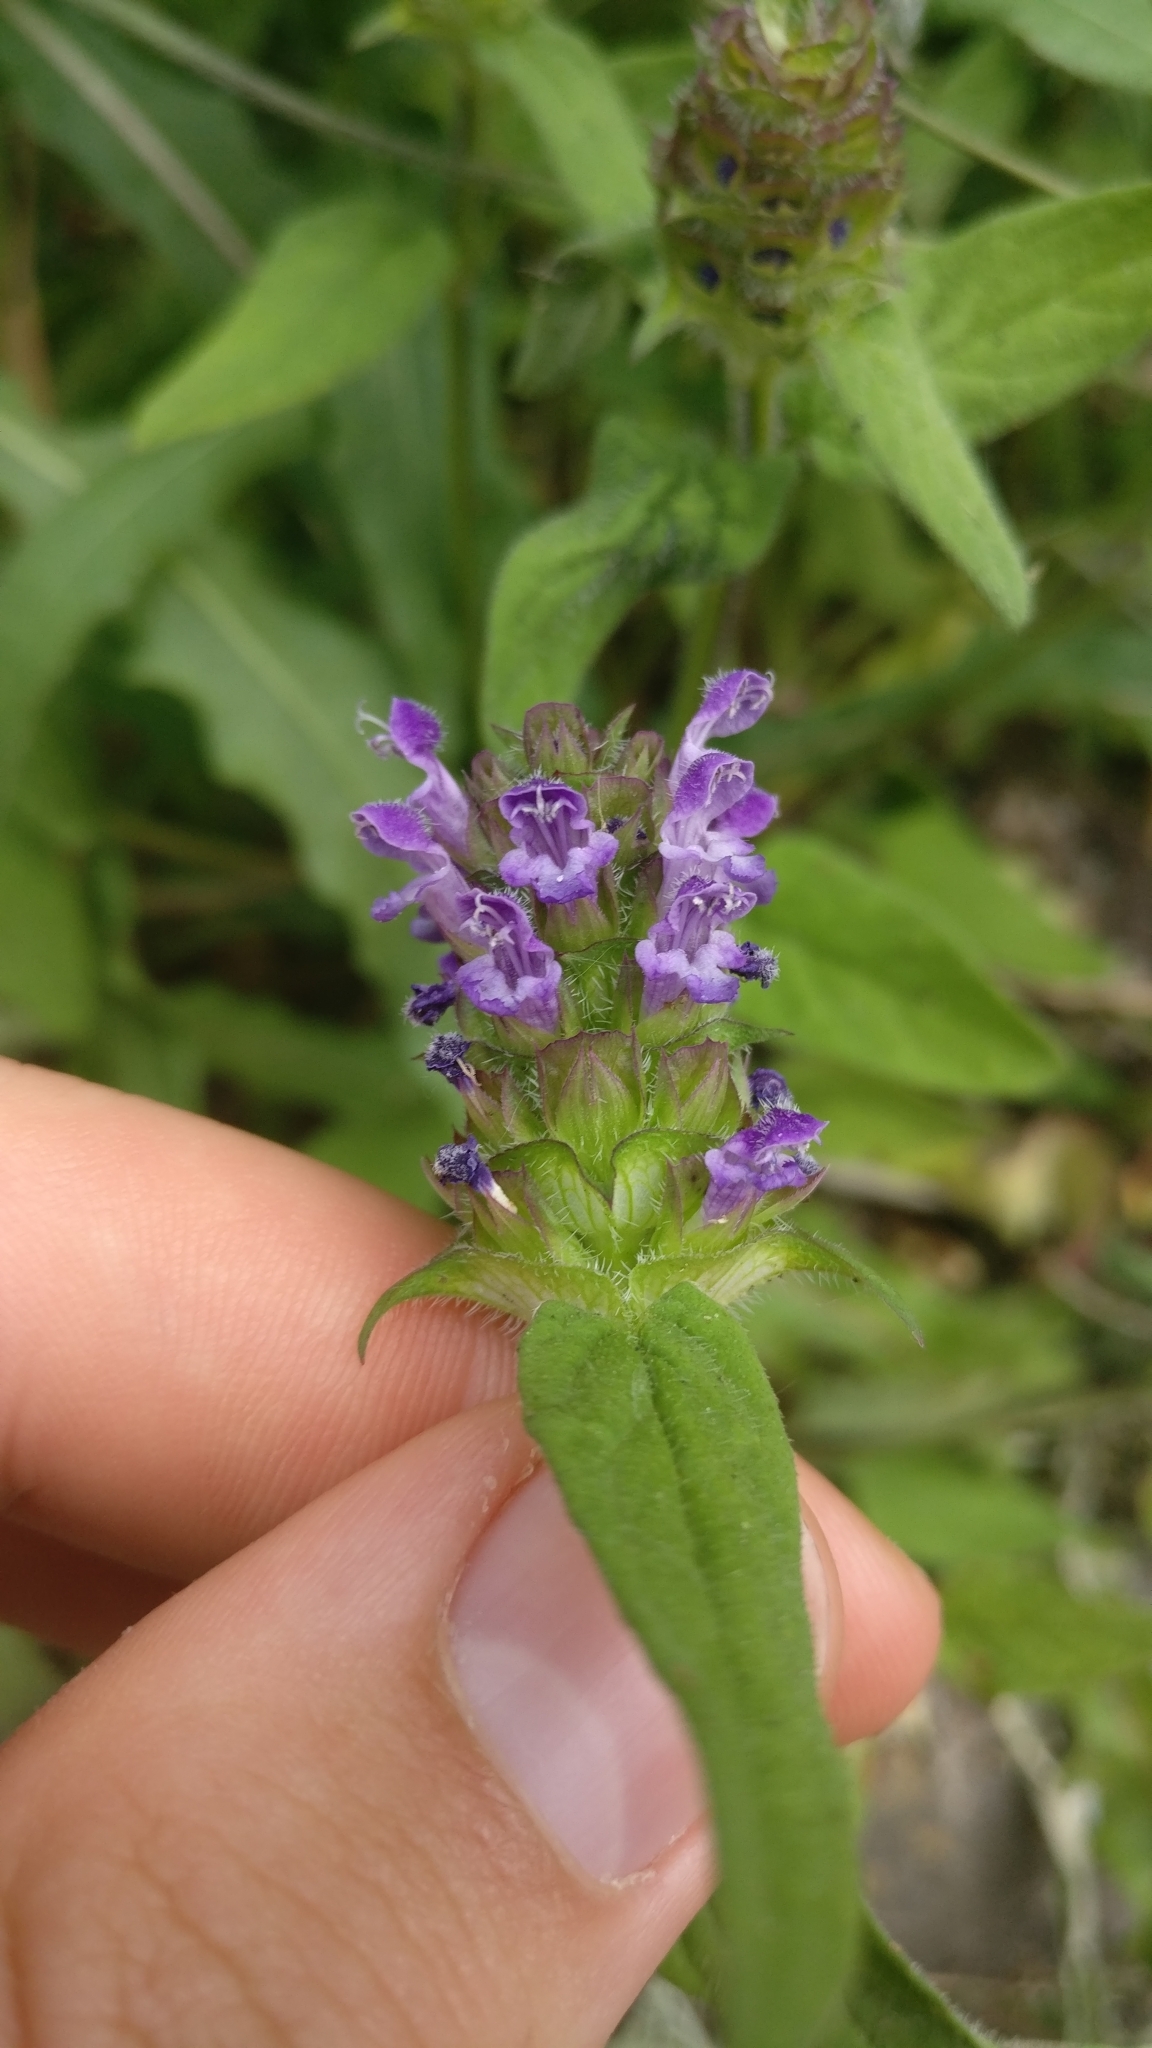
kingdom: Plantae
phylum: Tracheophyta
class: Magnoliopsida
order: Lamiales
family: Lamiaceae
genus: Prunella
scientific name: Prunella vulgaris
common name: Heal-all
